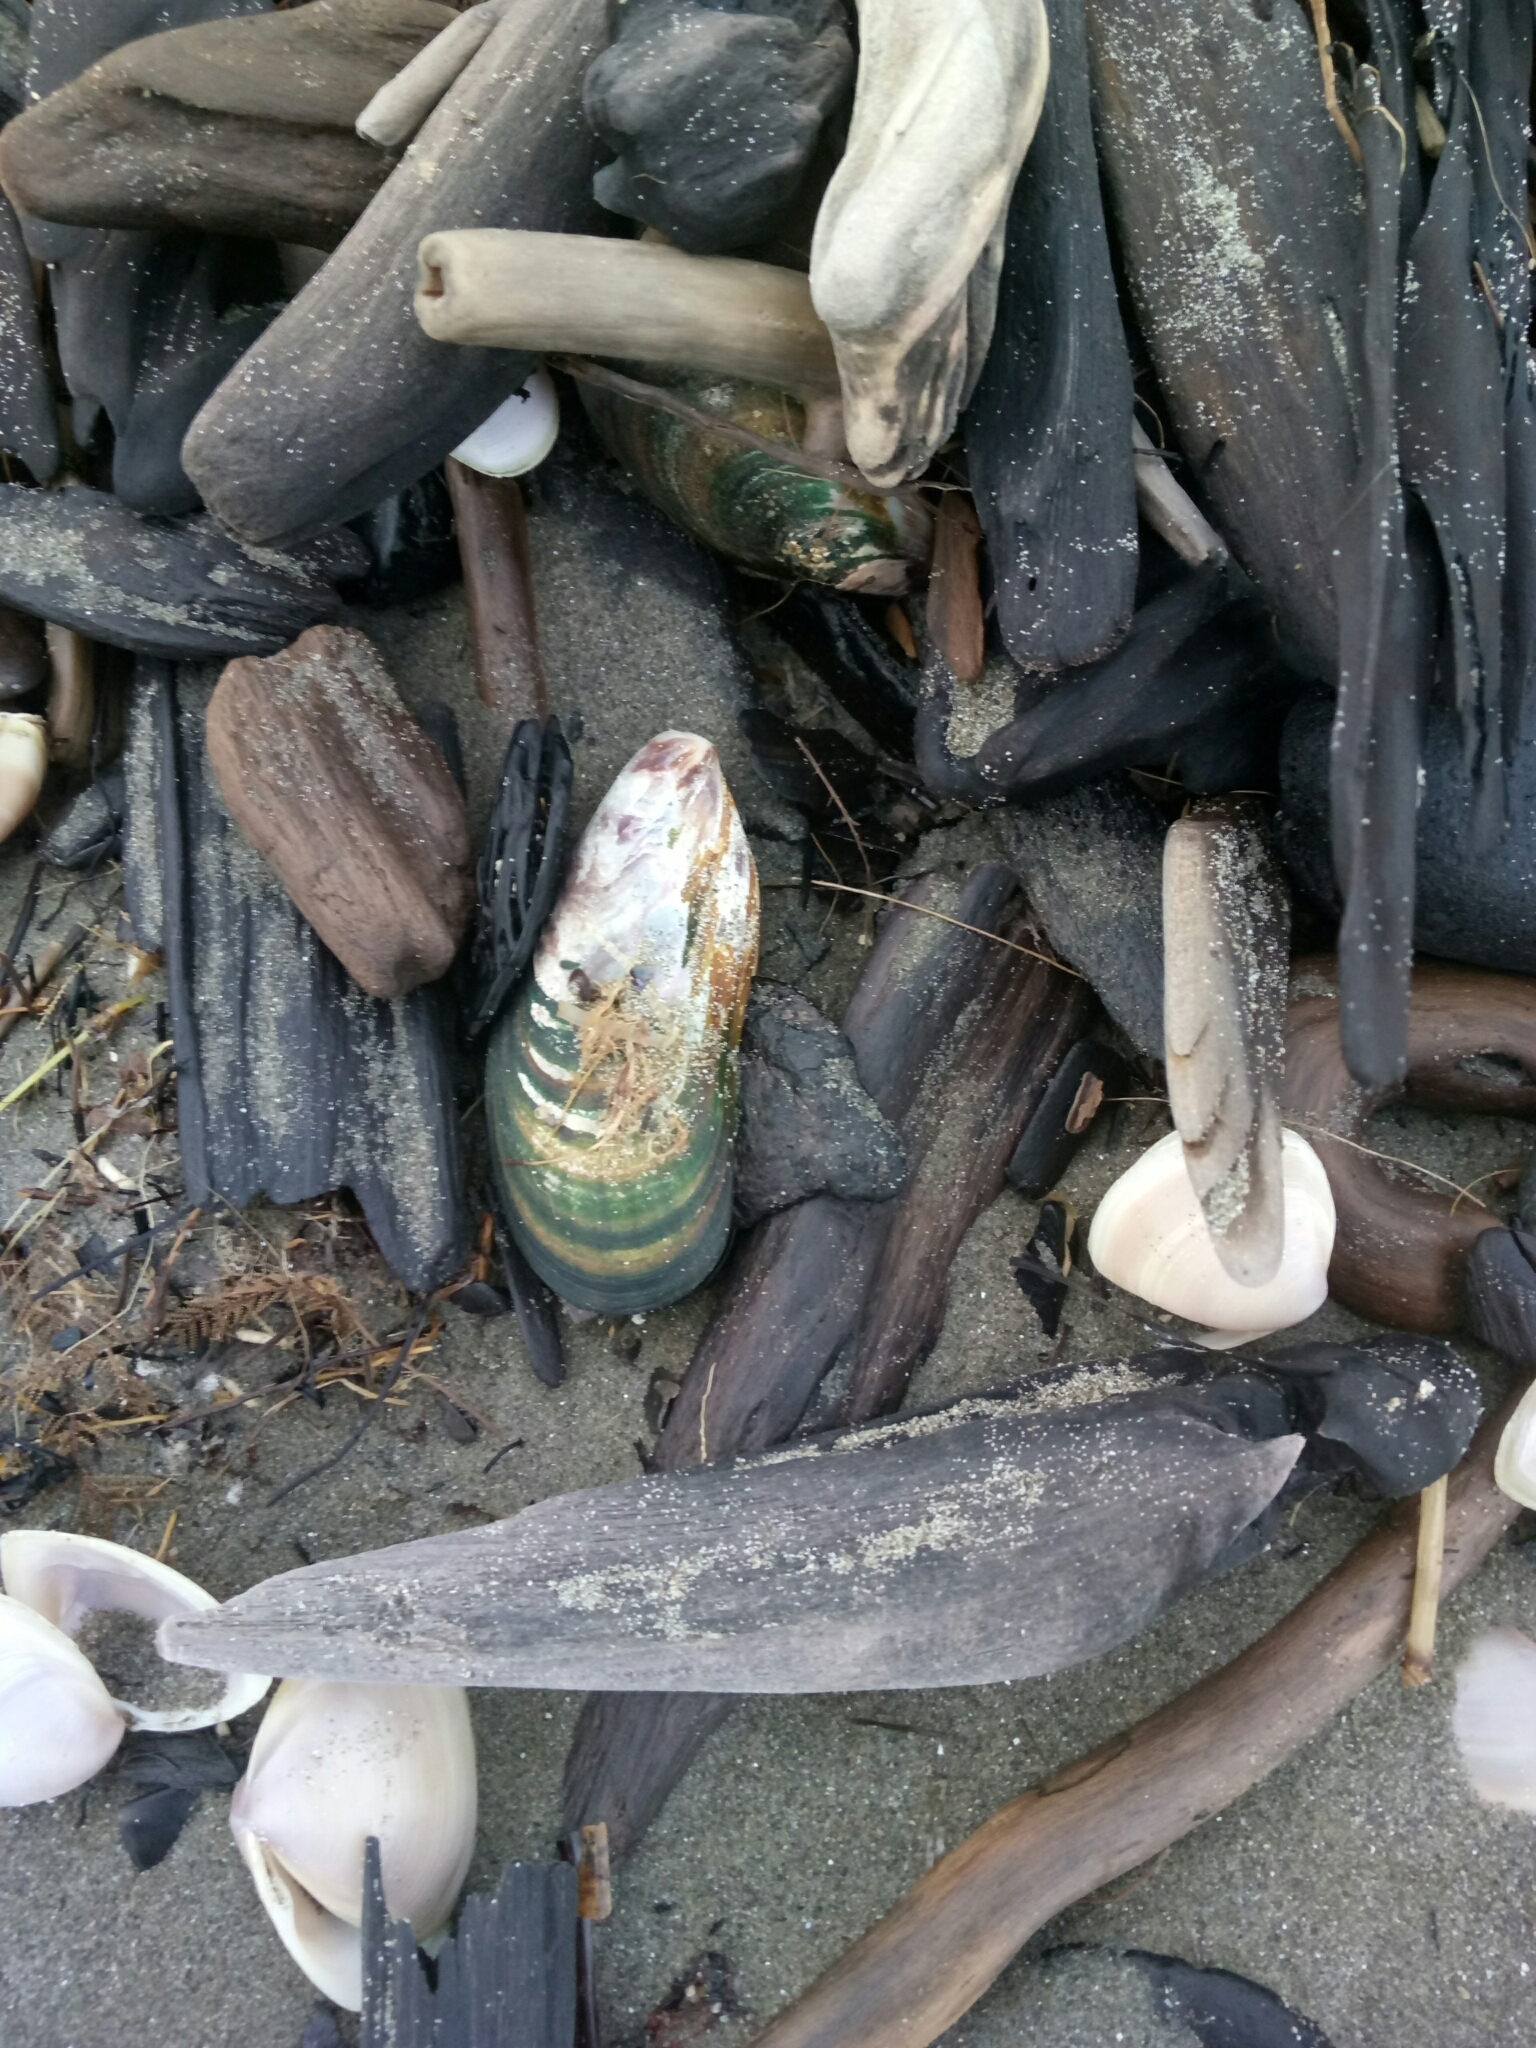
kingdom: Animalia
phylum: Mollusca
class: Bivalvia
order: Mytilida
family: Mytilidae
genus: Perna
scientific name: Perna canaliculus
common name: New zealand greenshelltm
